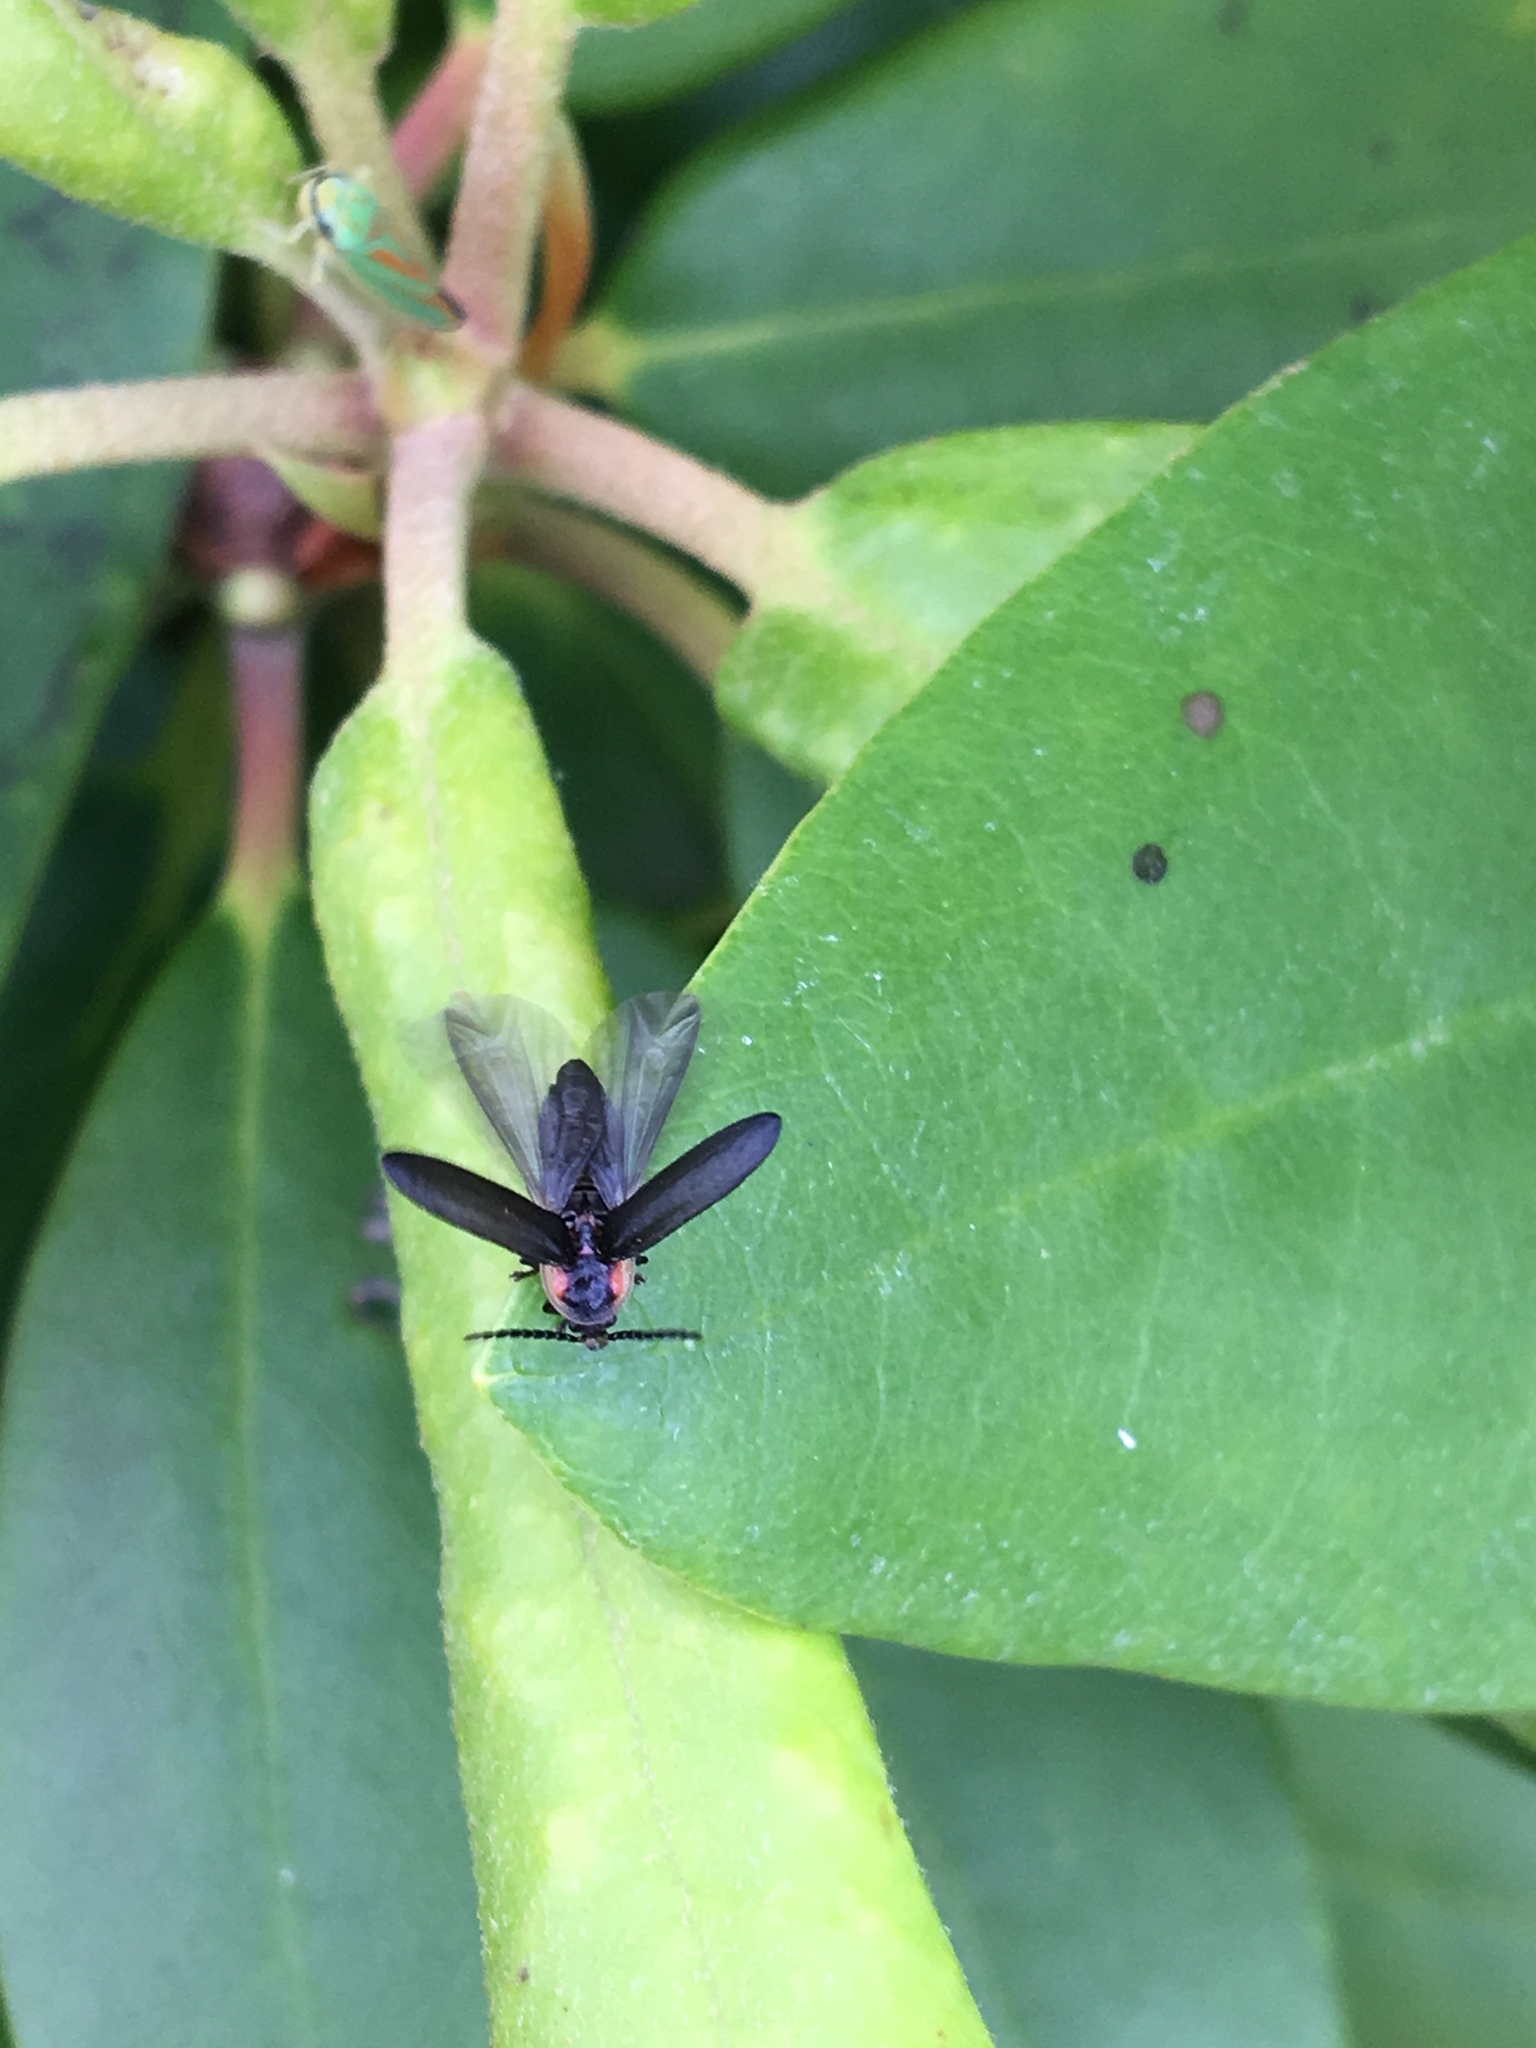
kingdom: Animalia
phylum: Arthropoda
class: Insecta
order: Coleoptera
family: Lampyridae
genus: Lucidota
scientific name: Lucidota atra
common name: Black firefly
